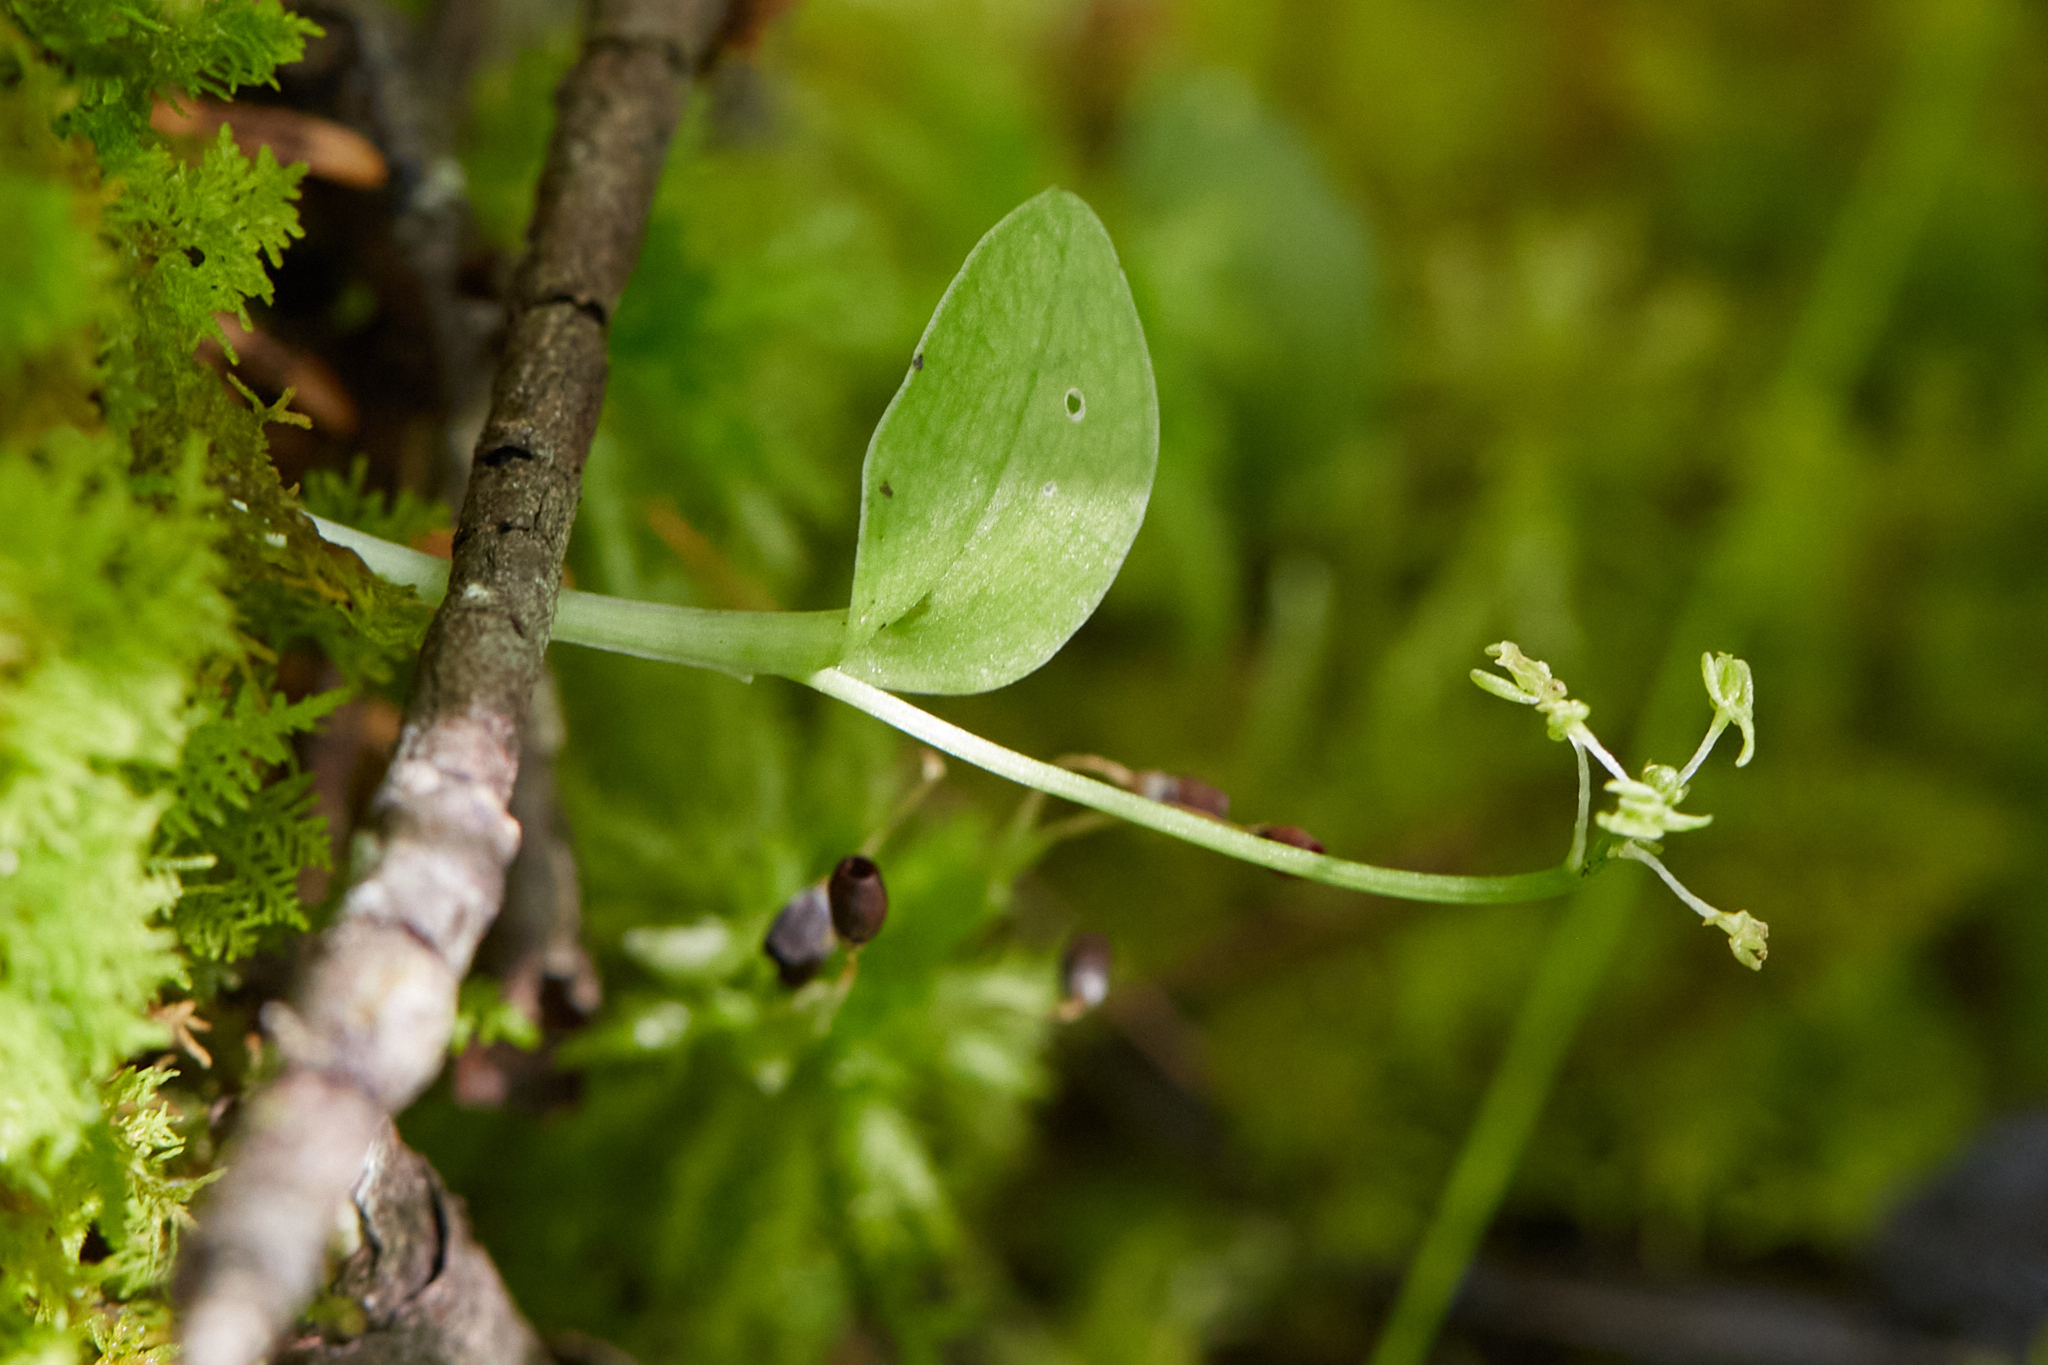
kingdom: Plantae
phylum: Tracheophyta
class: Liliopsida
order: Asparagales
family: Orchidaceae
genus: Malaxis
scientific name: Malaxis unifolia
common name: Green adder's-mouth
